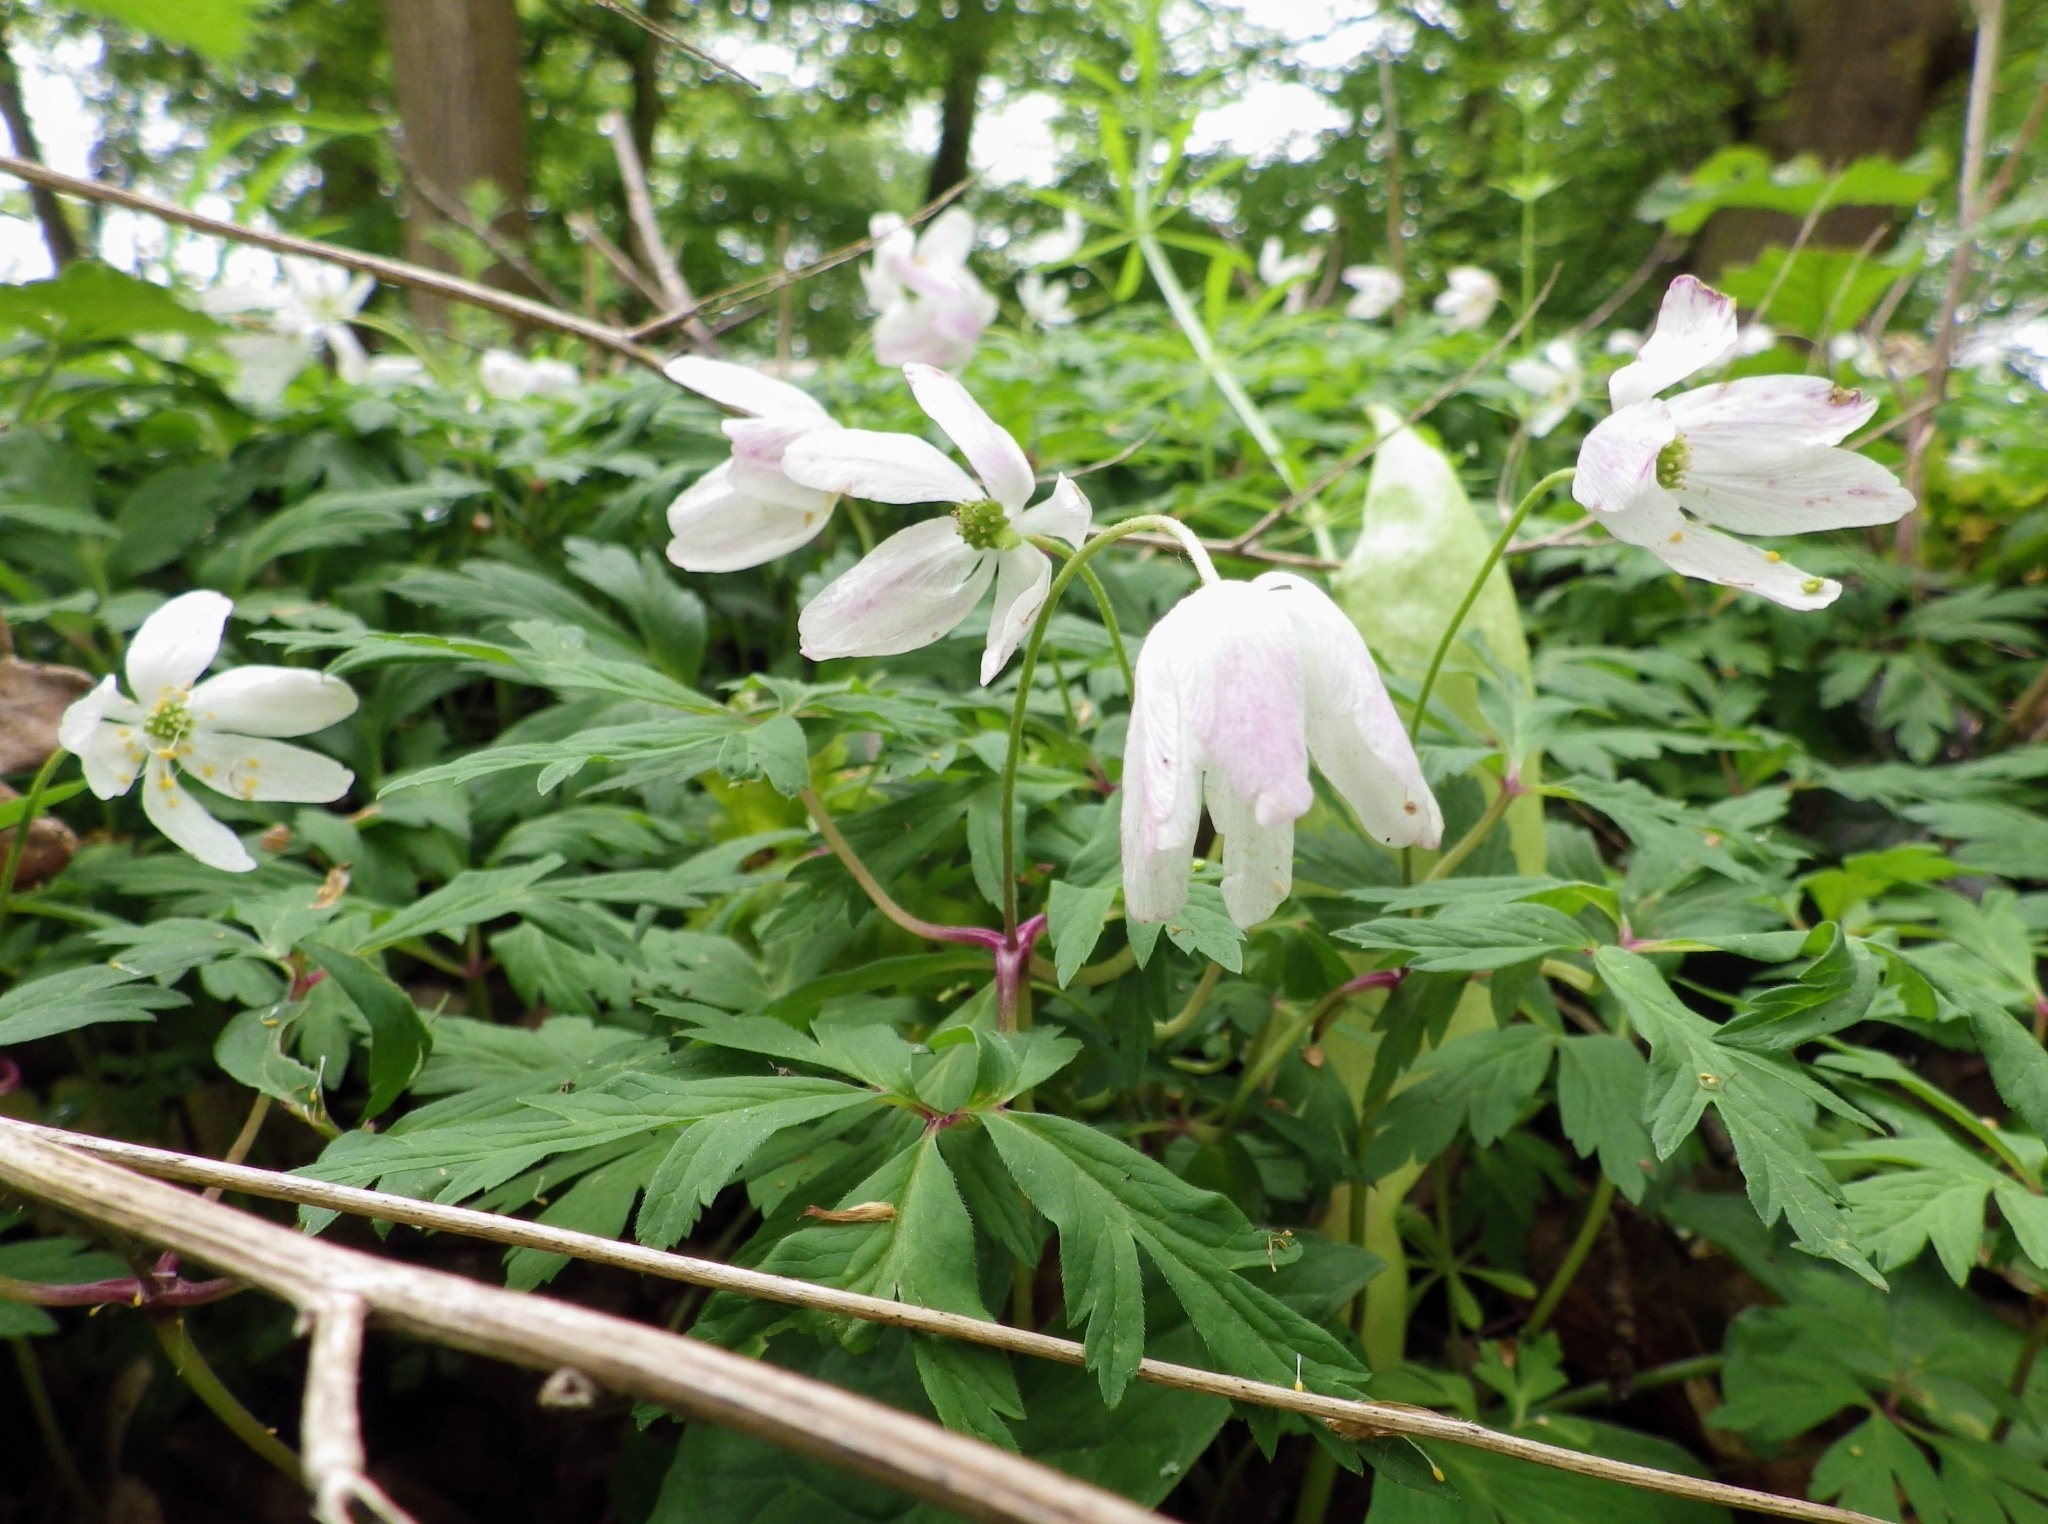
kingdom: Plantae
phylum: Tracheophyta
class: Magnoliopsida
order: Ranunculales
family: Ranunculaceae
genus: Anemone
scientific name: Anemone nemorosa
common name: Wood anemone
